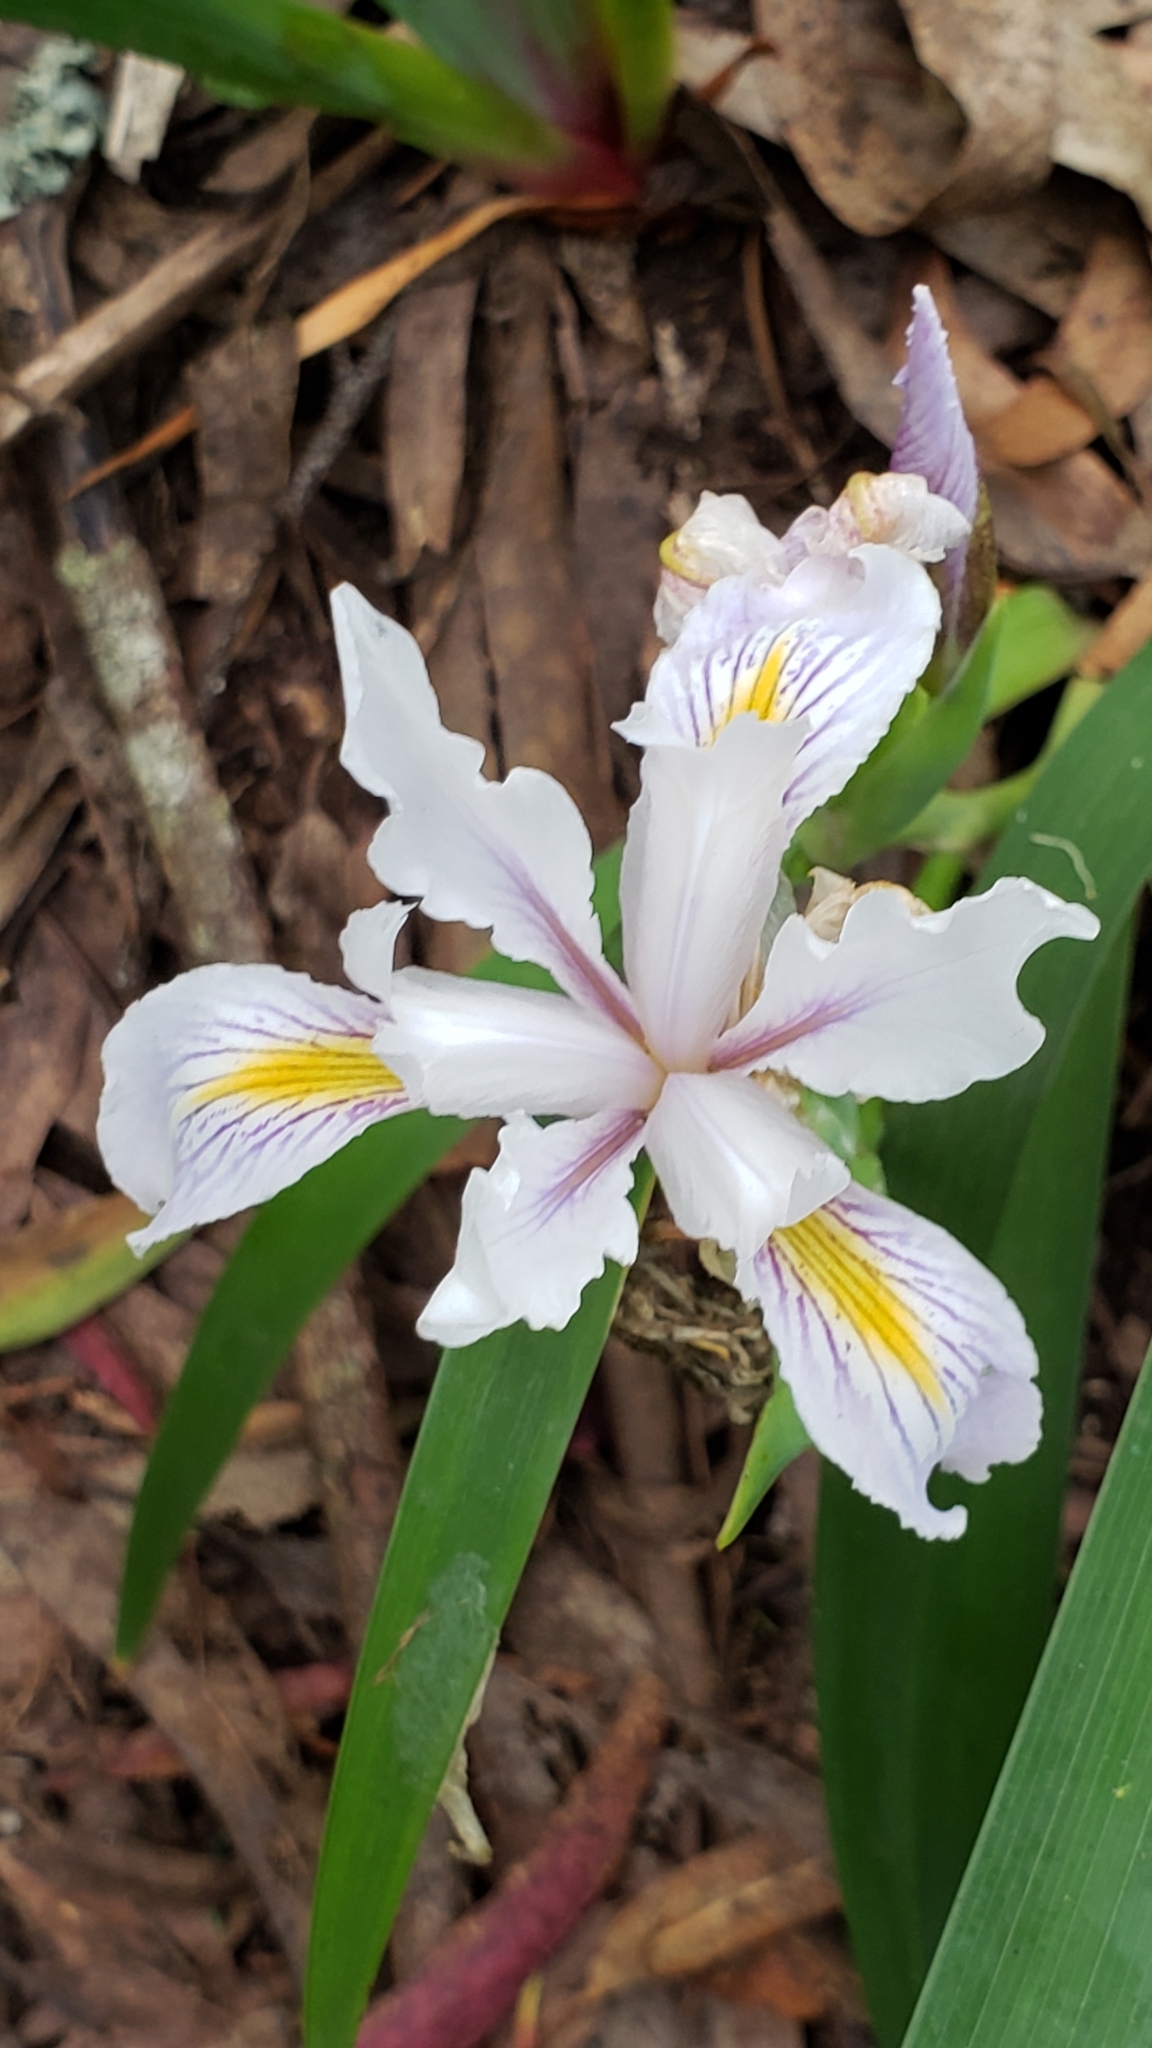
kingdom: Plantae
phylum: Tracheophyta
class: Liliopsida
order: Asparagales
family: Iridaceae
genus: Iris
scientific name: Iris douglasiana
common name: Marin iris
